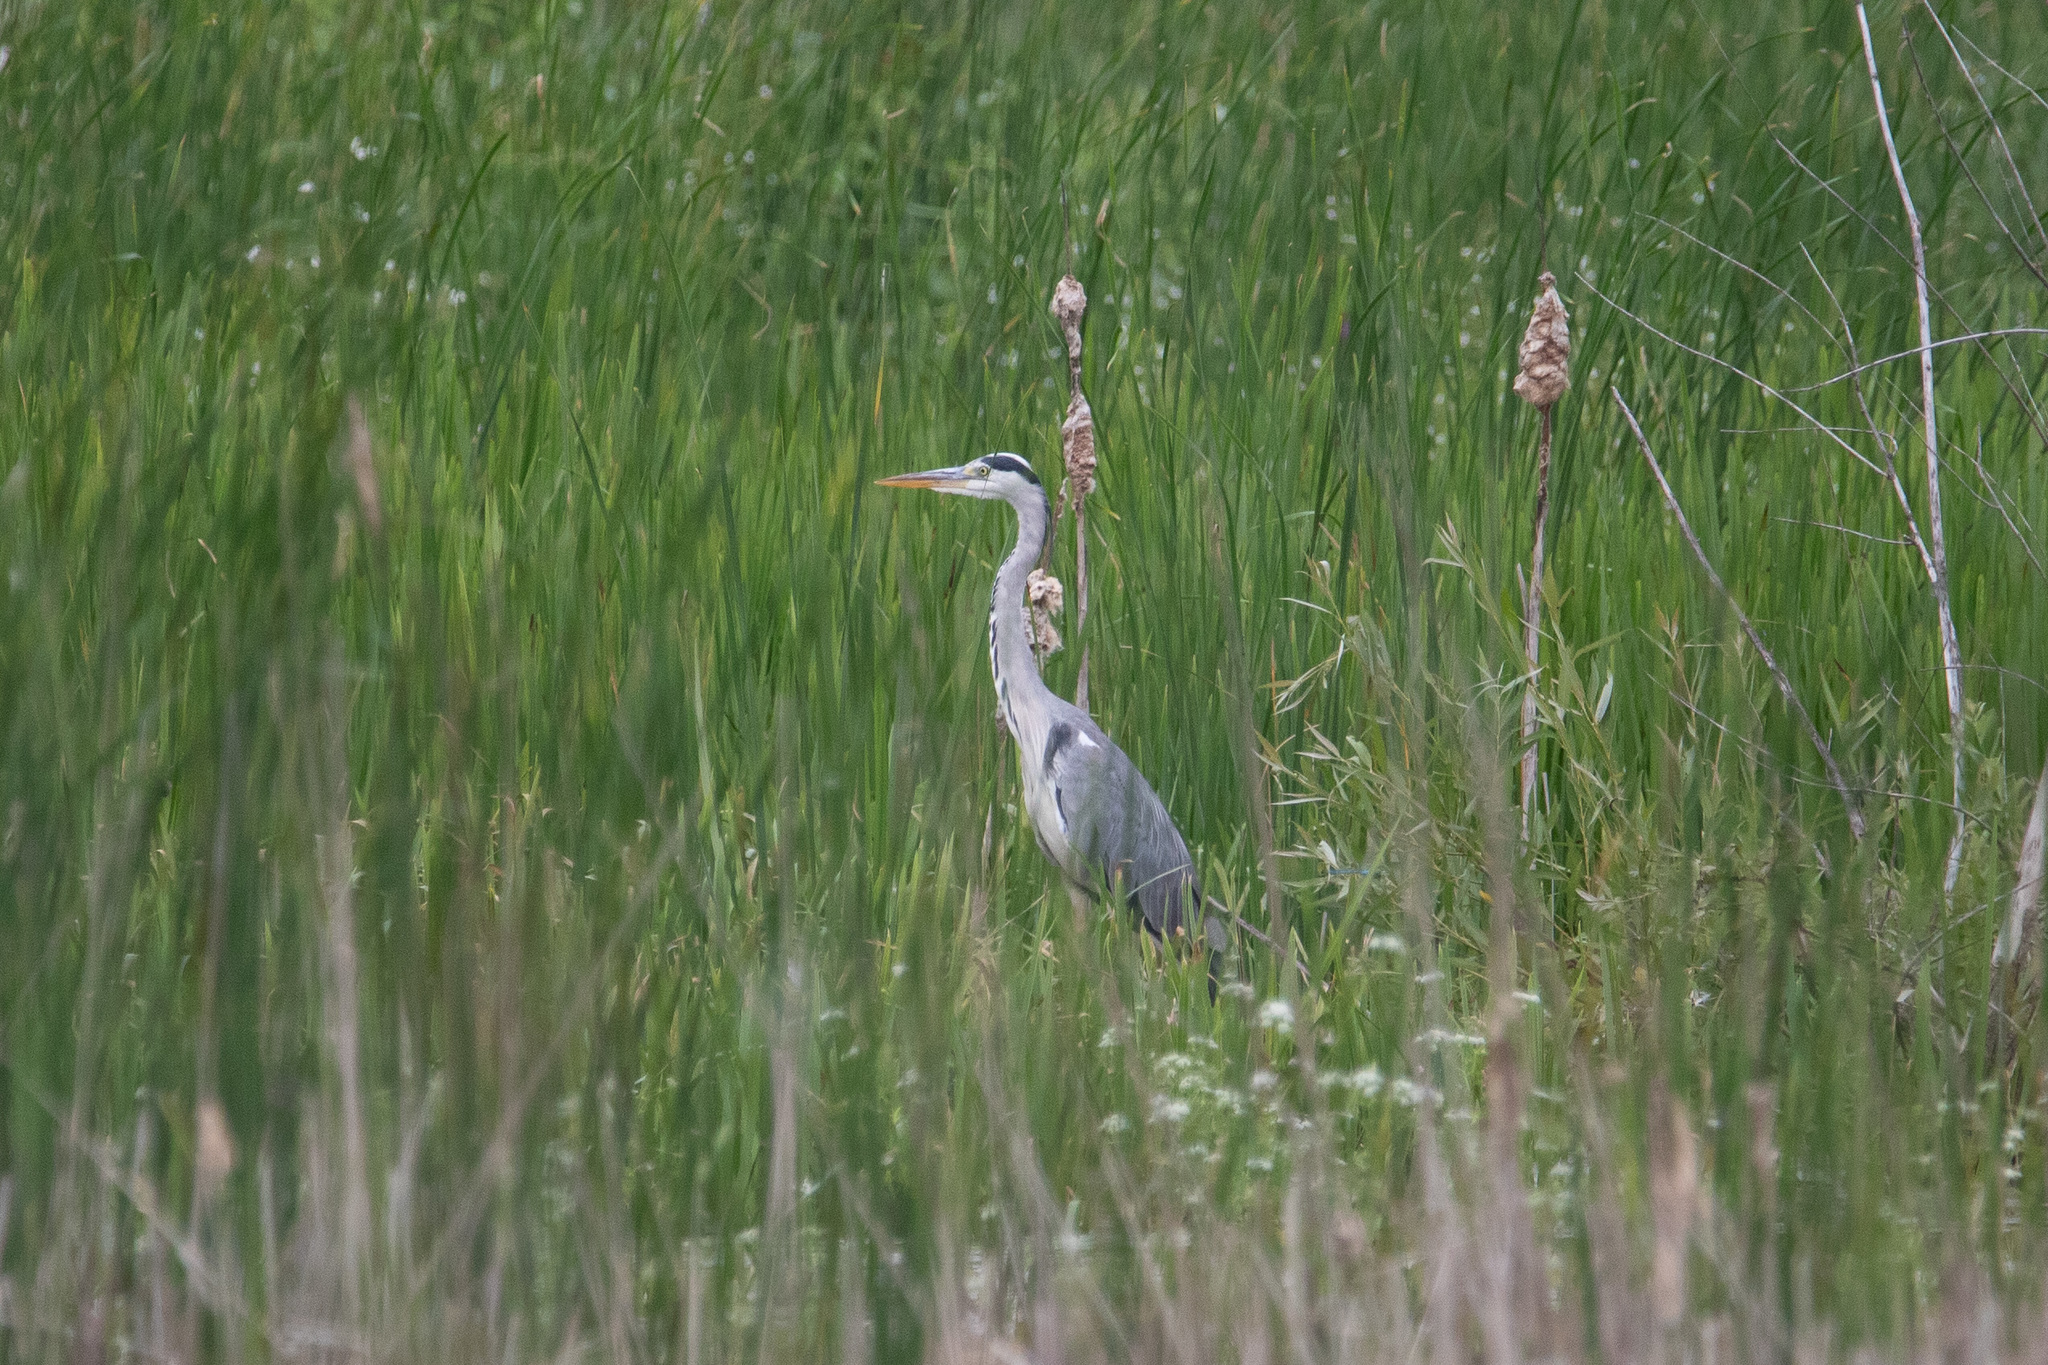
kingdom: Animalia
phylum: Chordata
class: Aves
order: Pelecaniformes
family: Ardeidae
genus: Ardea
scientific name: Ardea cinerea
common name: Grey heron
